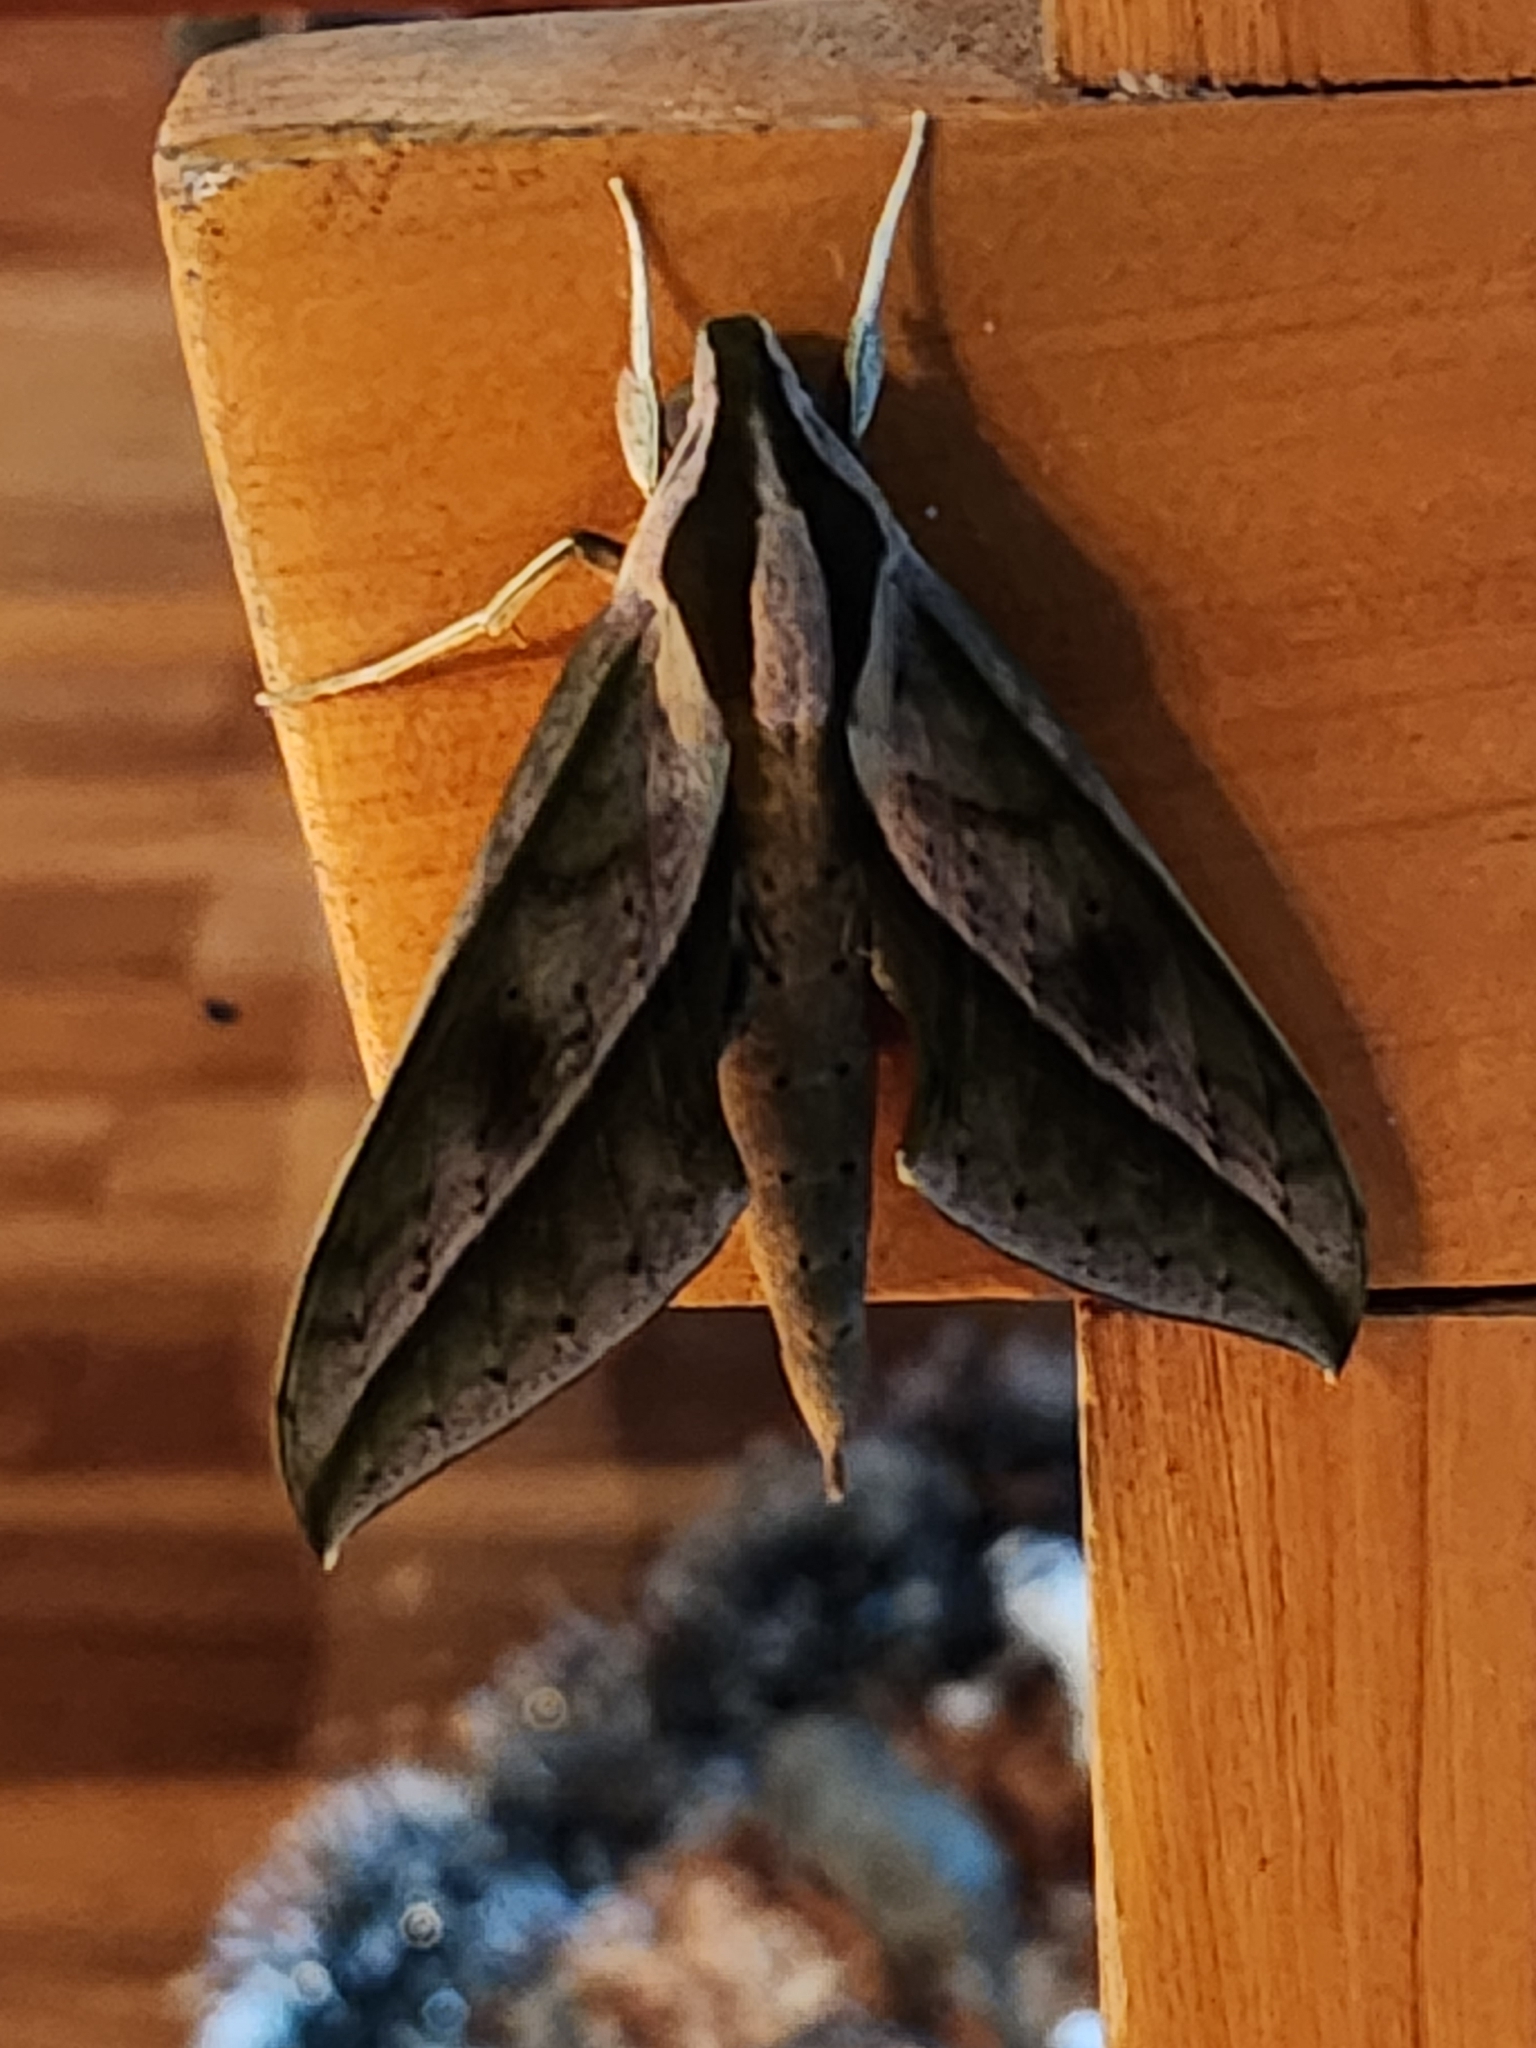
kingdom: Animalia
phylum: Arthropoda
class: Insecta
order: Lepidoptera
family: Sphingidae
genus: Xylophanes
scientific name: Xylophanes acrus
